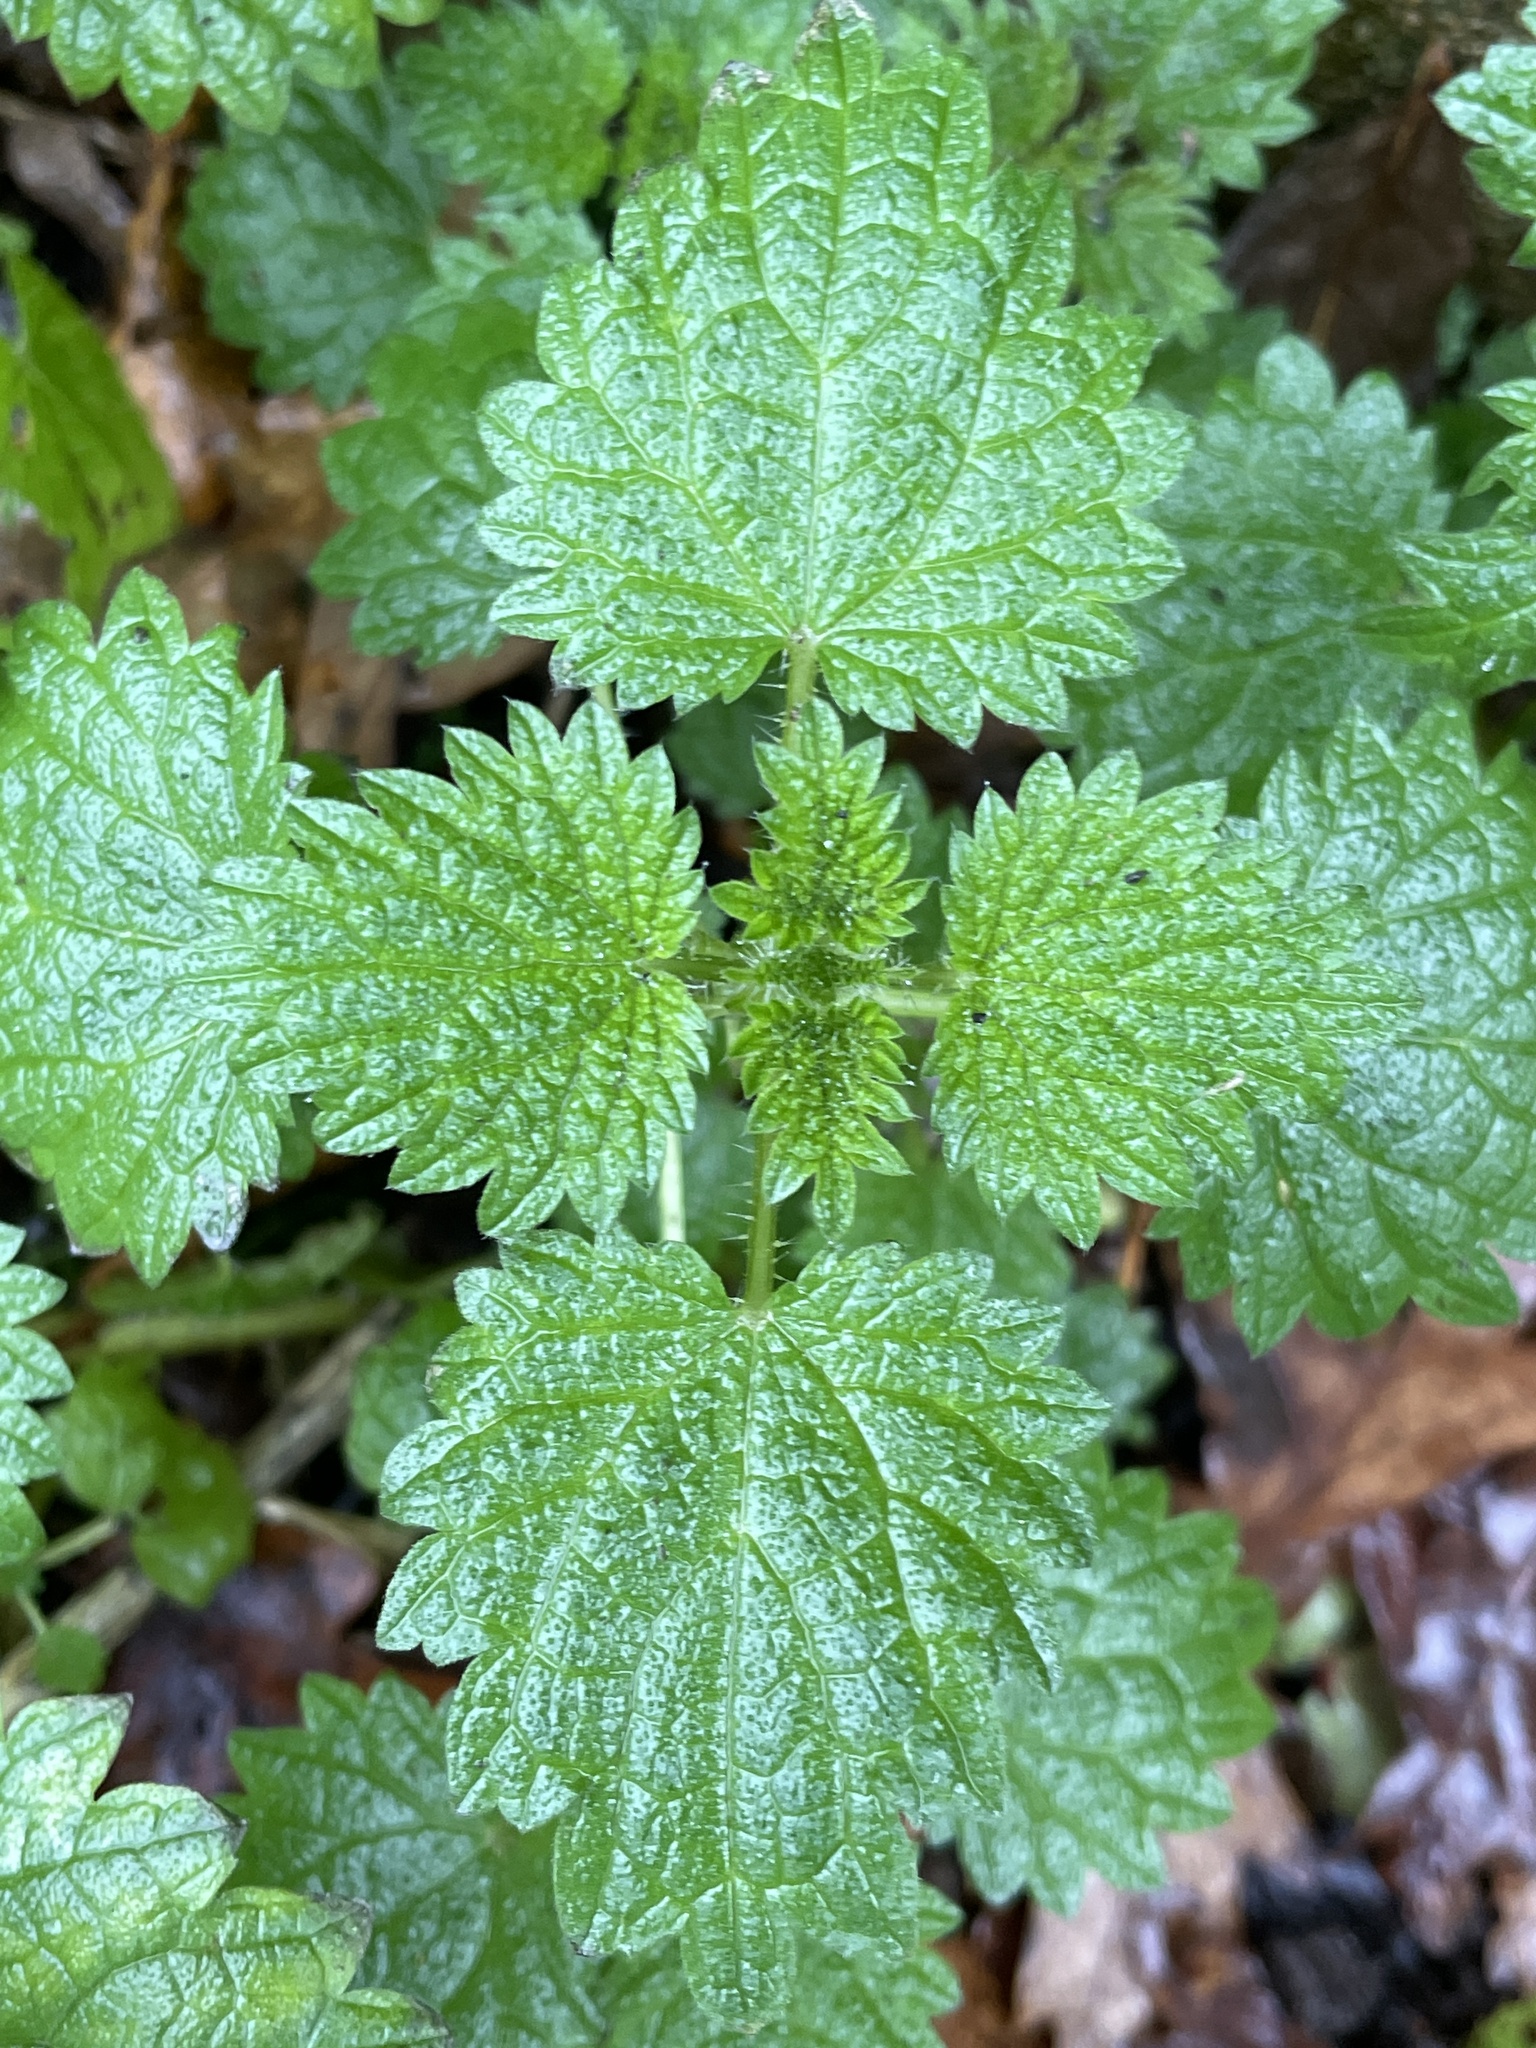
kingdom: Plantae
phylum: Tracheophyta
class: Magnoliopsida
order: Rosales
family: Urticaceae
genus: Urtica
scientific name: Urtica dioica
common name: Common nettle
